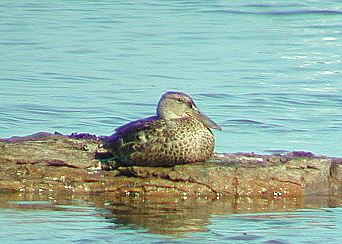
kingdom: Animalia
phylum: Chordata
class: Aves
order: Anseriformes
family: Anatidae
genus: Spatula
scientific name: Spatula clypeata
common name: Northern shoveler
